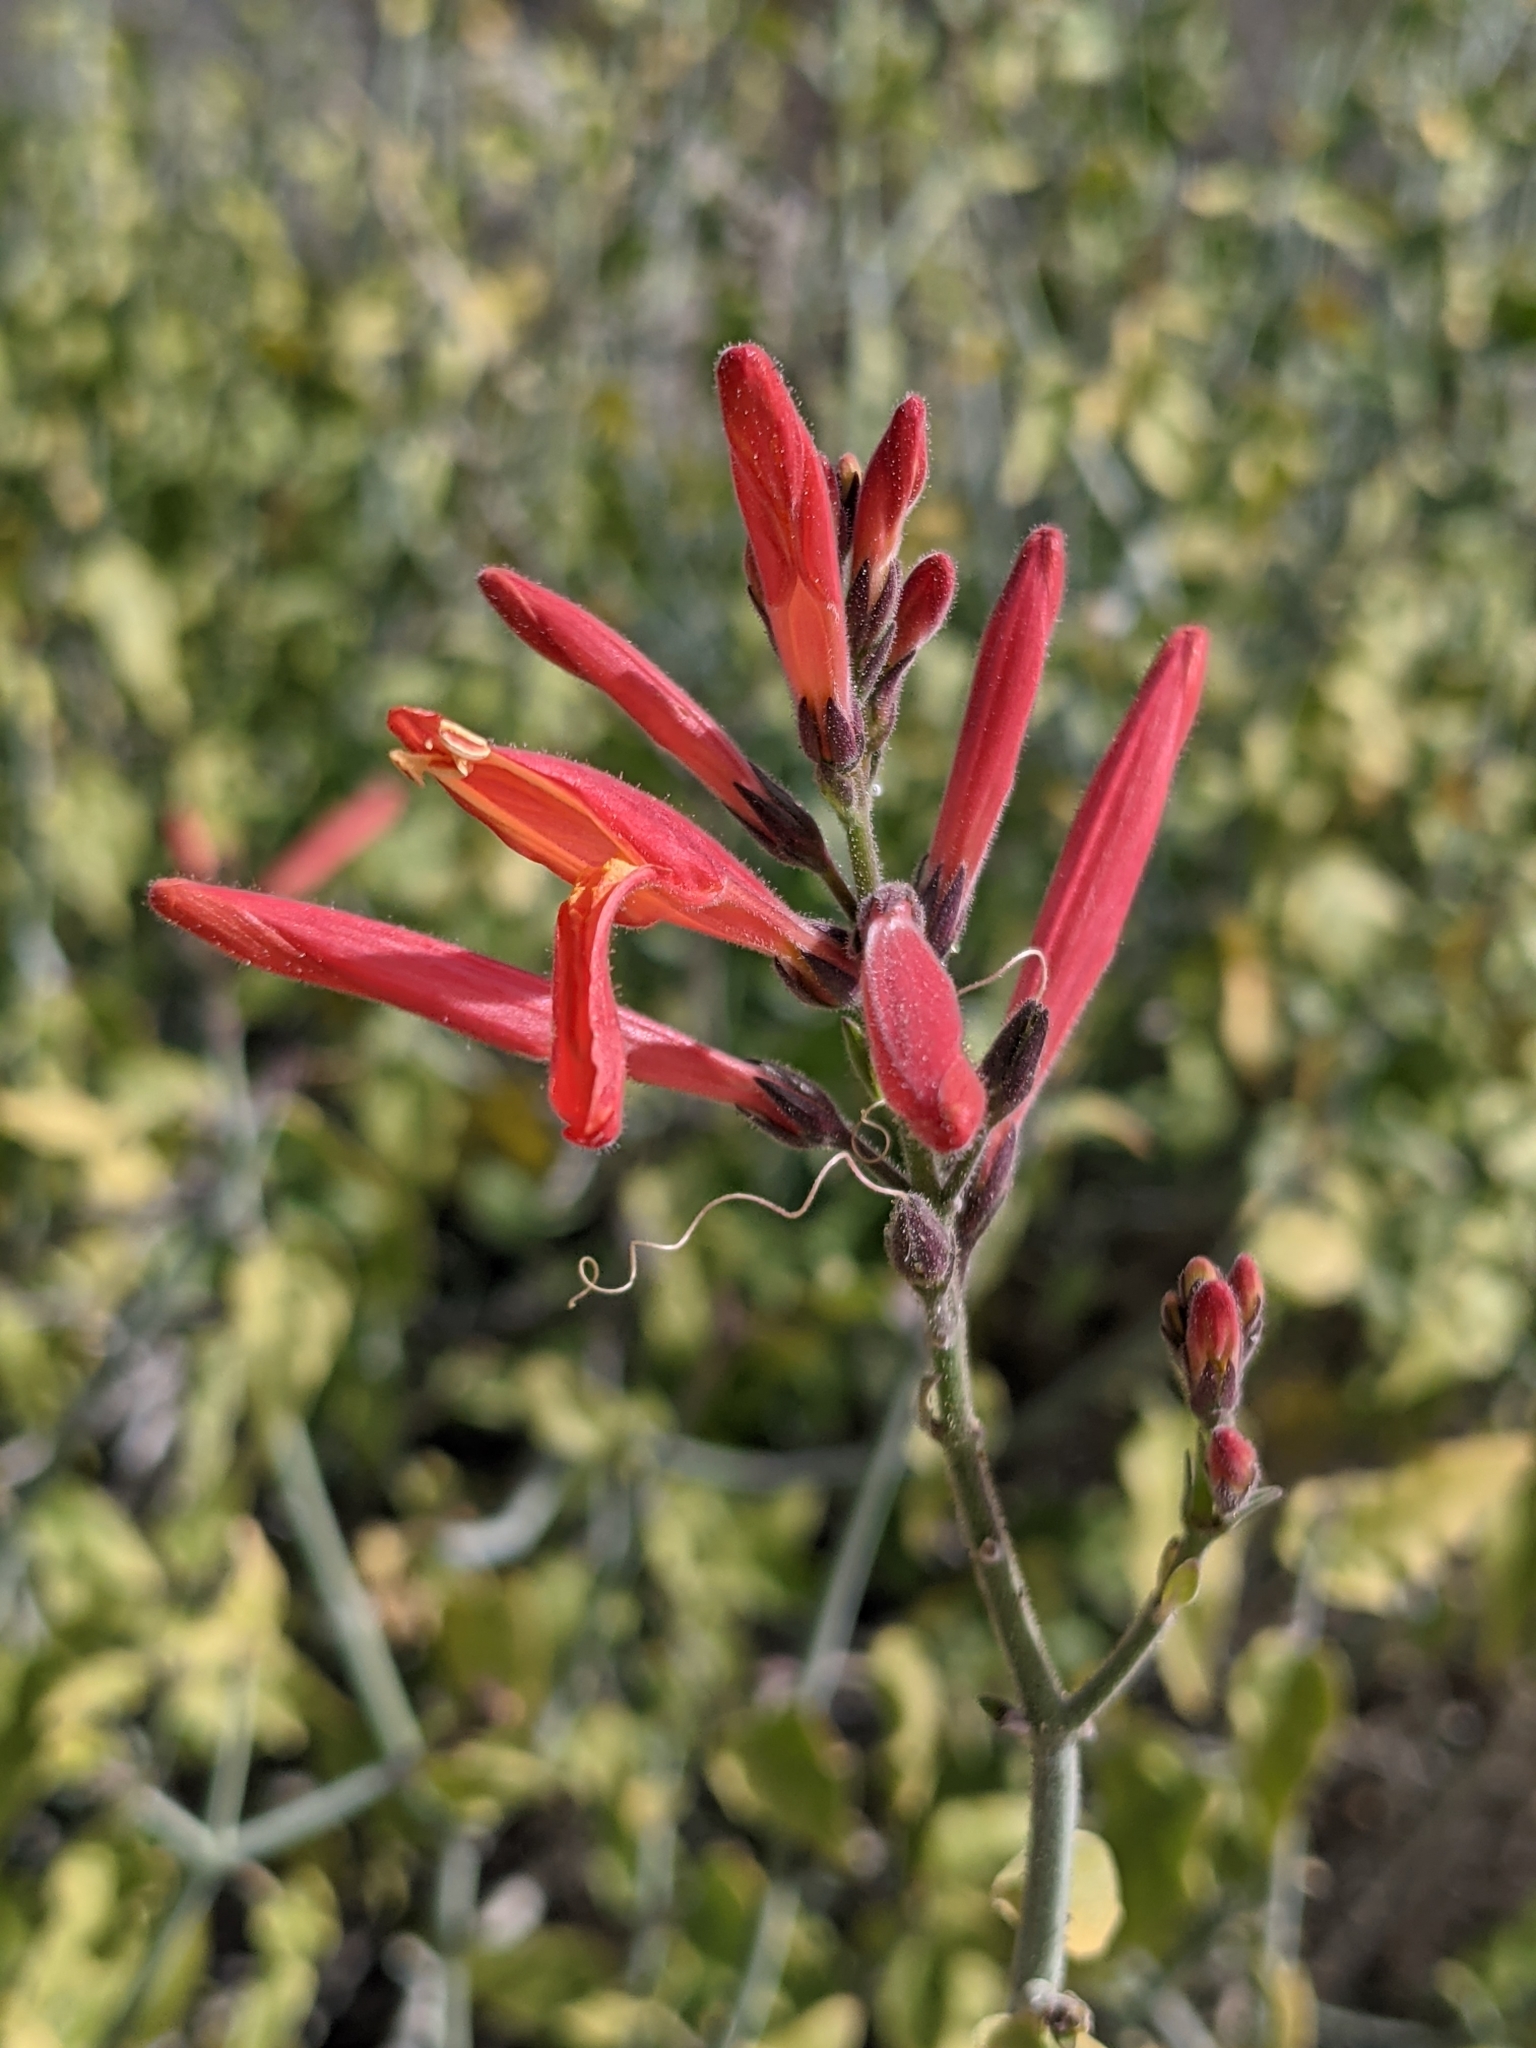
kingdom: Plantae
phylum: Tracheophyta
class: Magnoliopsida
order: Lamiales
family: Acanthaceae
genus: Justicia
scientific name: Justicia californica
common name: Chuparosa-honeysuckle
